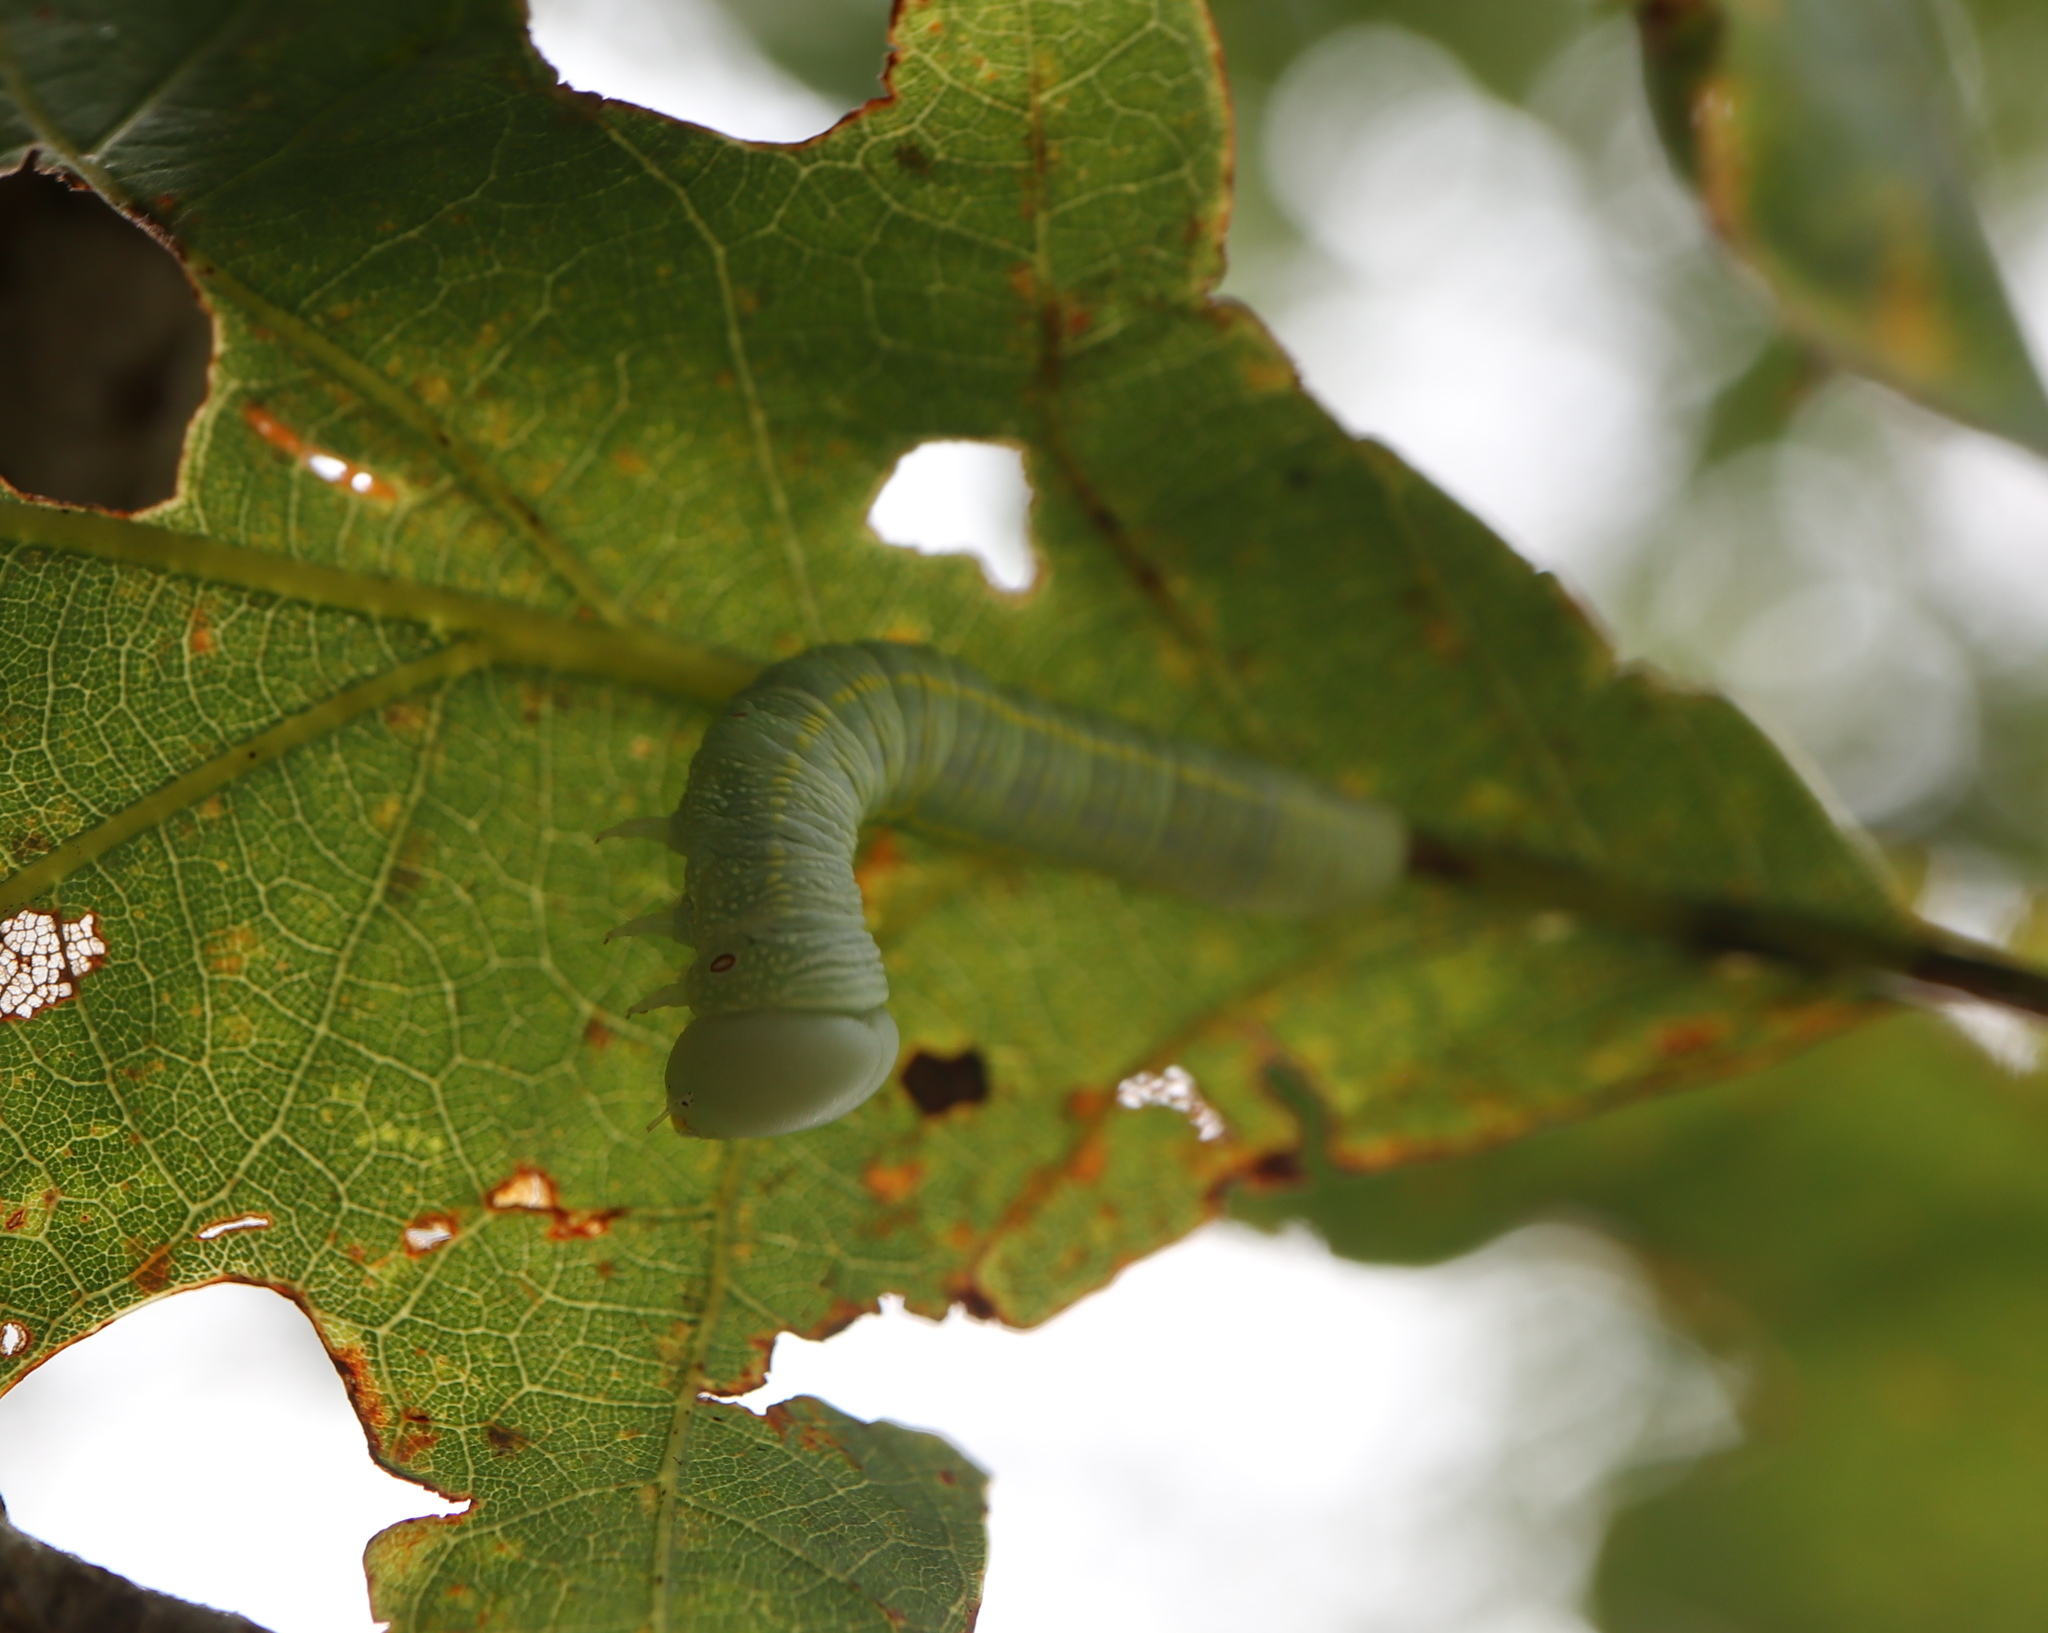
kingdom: Animalia
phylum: Arthropoda
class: Insecta
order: Lepidoptera
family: Notodontidae
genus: Nadata
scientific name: Nadata gibbosa
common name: White-dotted prominent
